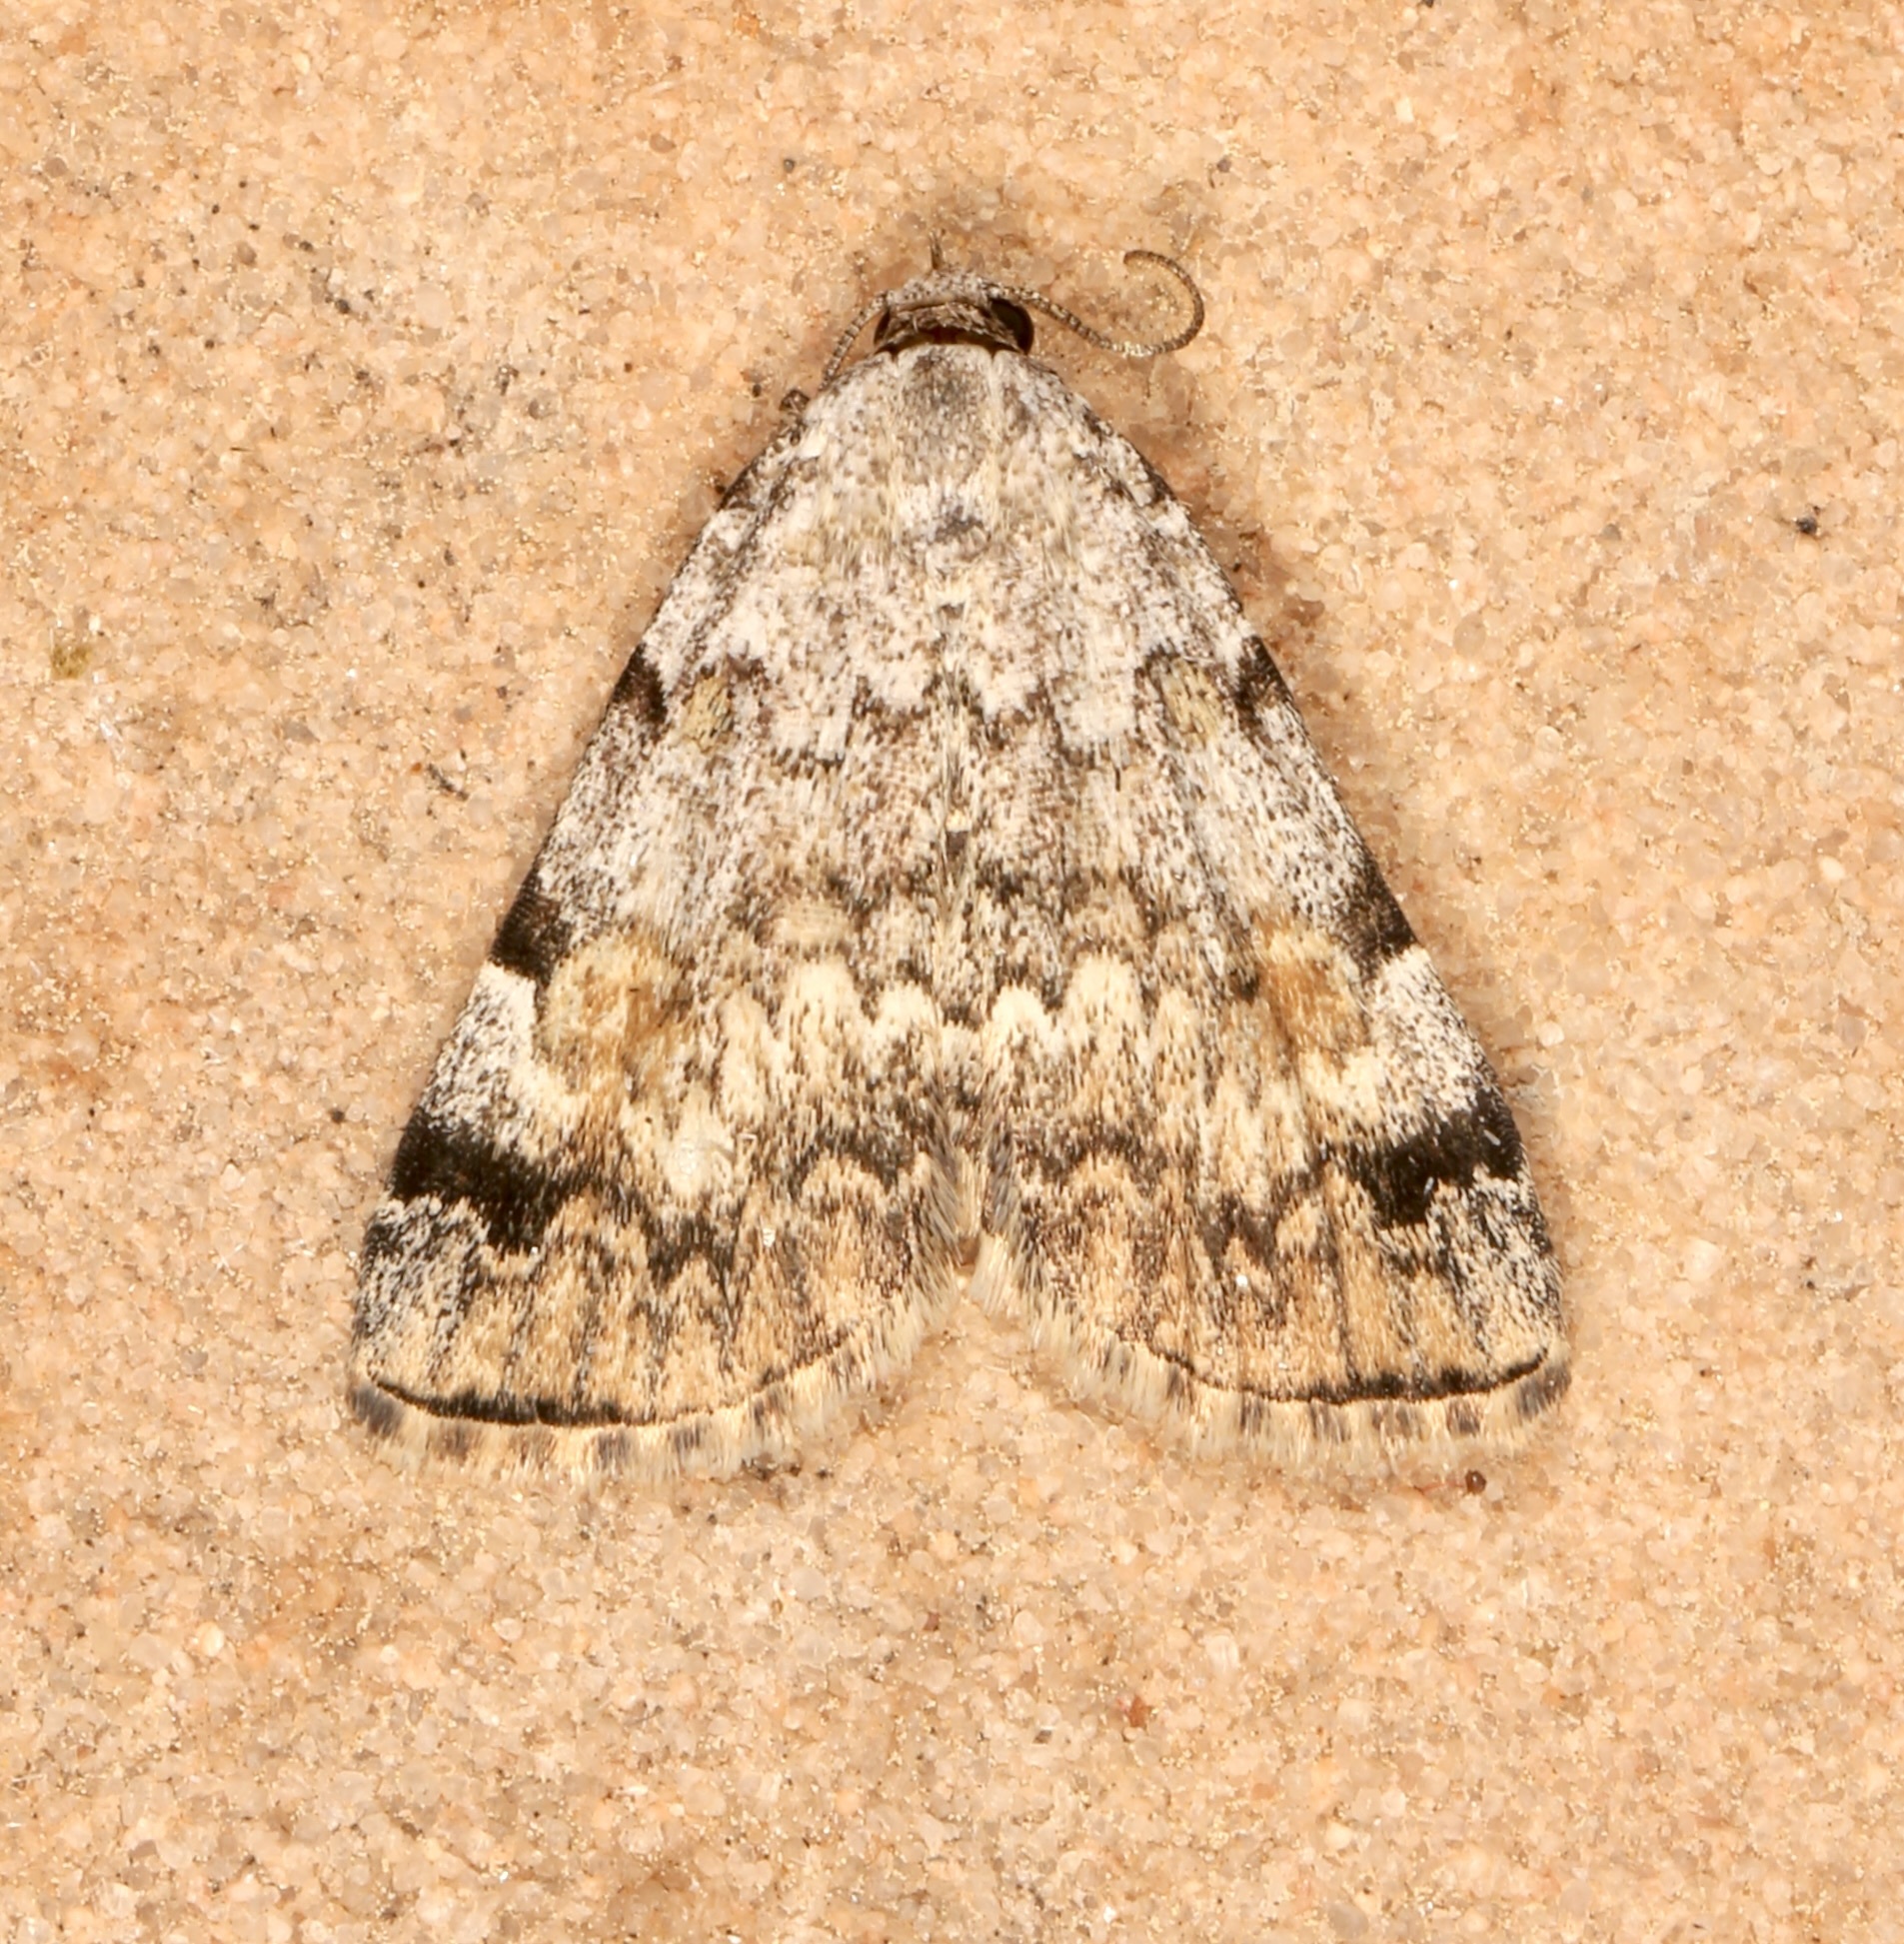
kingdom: Animalia
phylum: Arthropoda
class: Insecta
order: Lepidoptera
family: Erebidae
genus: Idia
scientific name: Idia americalis
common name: American idia moth
